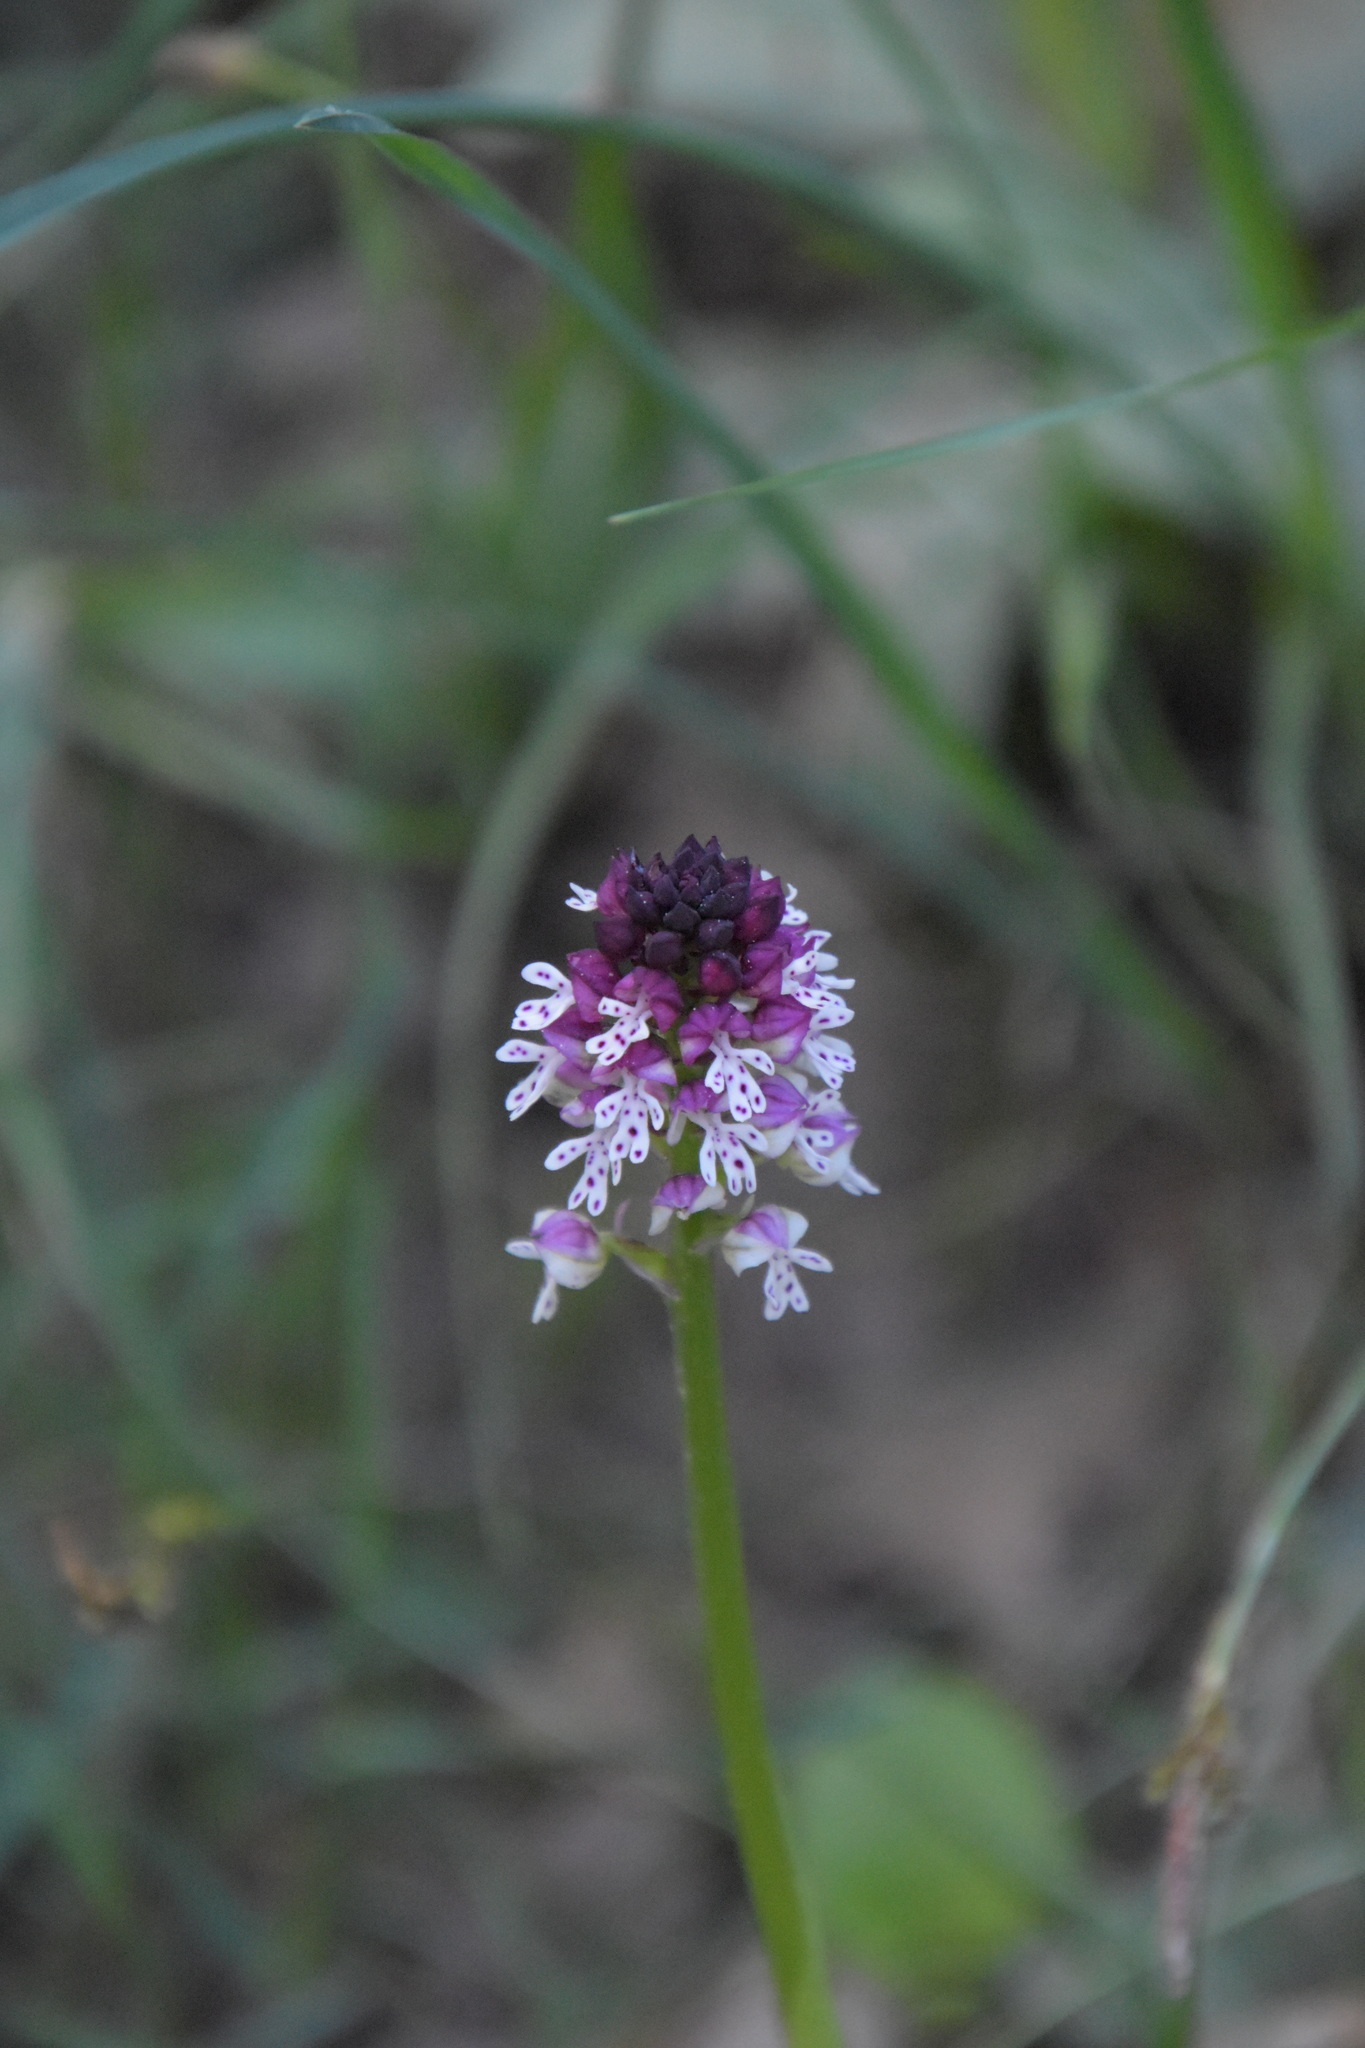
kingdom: Plantae
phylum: Tracheophyta
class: Liliopsida
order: Asparagales
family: Orchidaceae
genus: Neotinea
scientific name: Neotinea ustulata
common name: Burnt orchid
